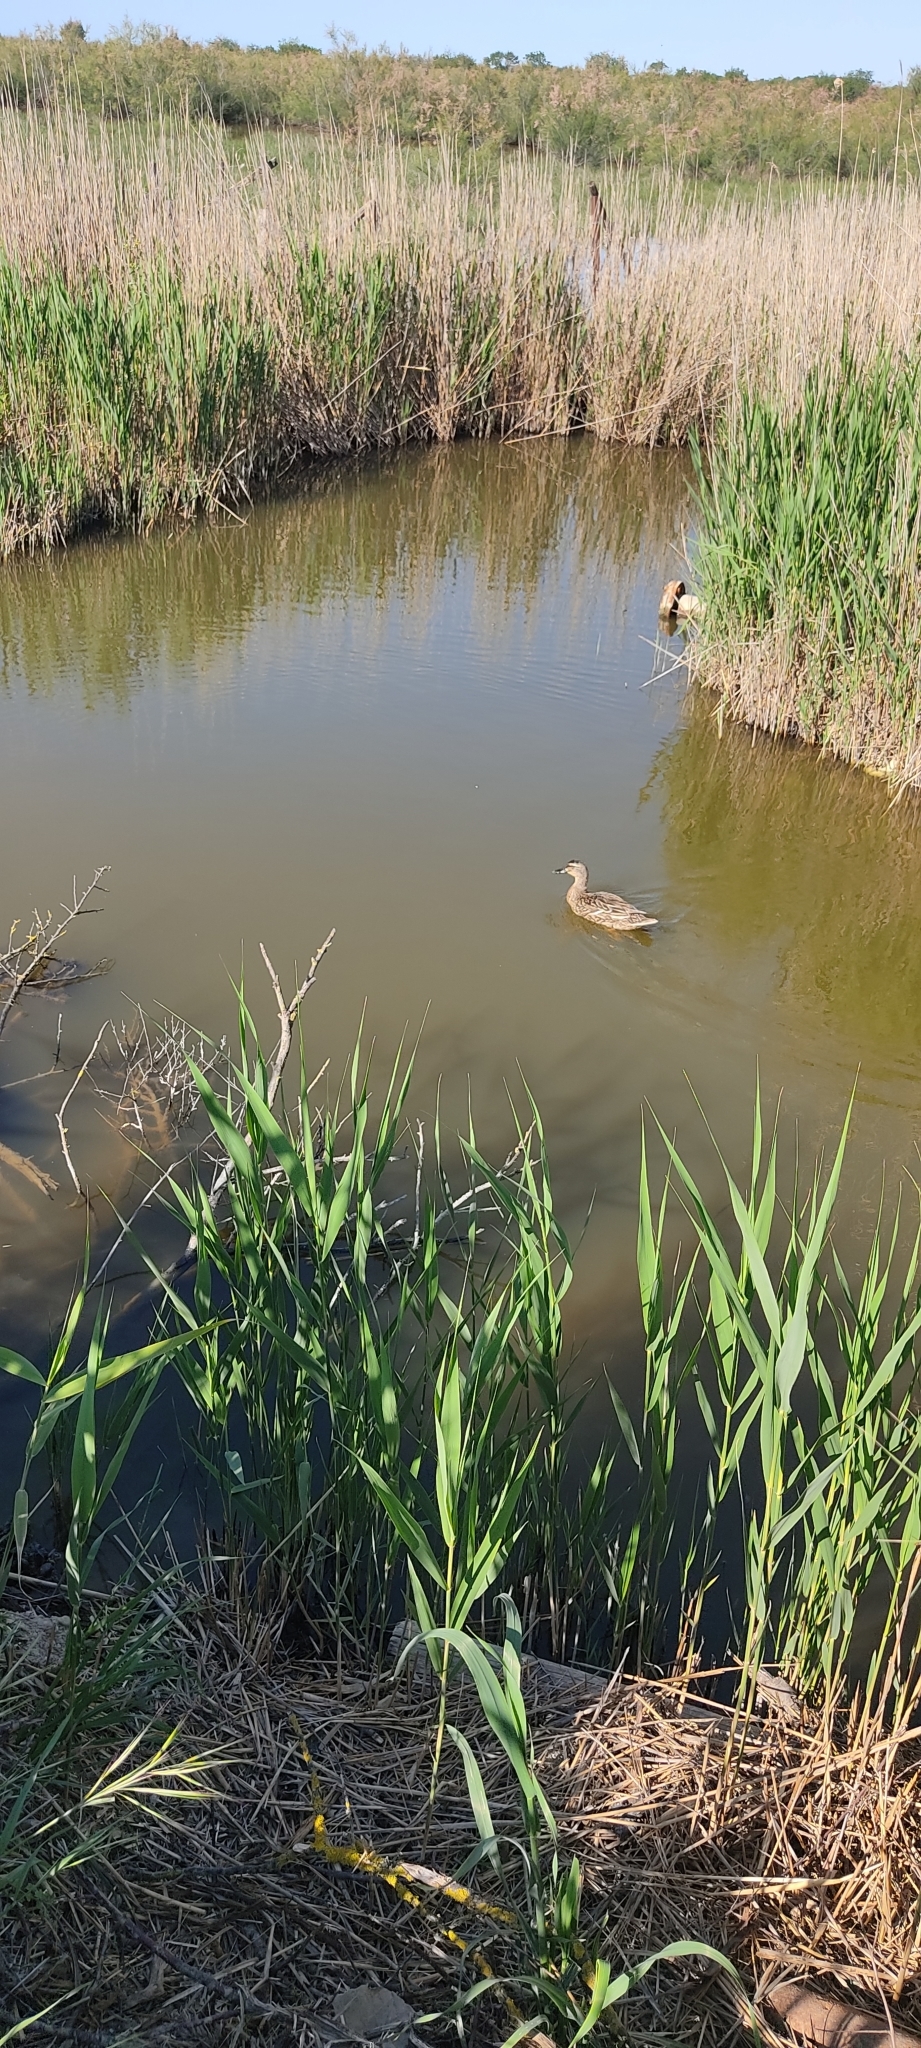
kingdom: Animalia
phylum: Chordata
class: Aves
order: Anseriformes
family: Anatidae
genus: Anas
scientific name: Anas platyrhynchos
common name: Mallard
